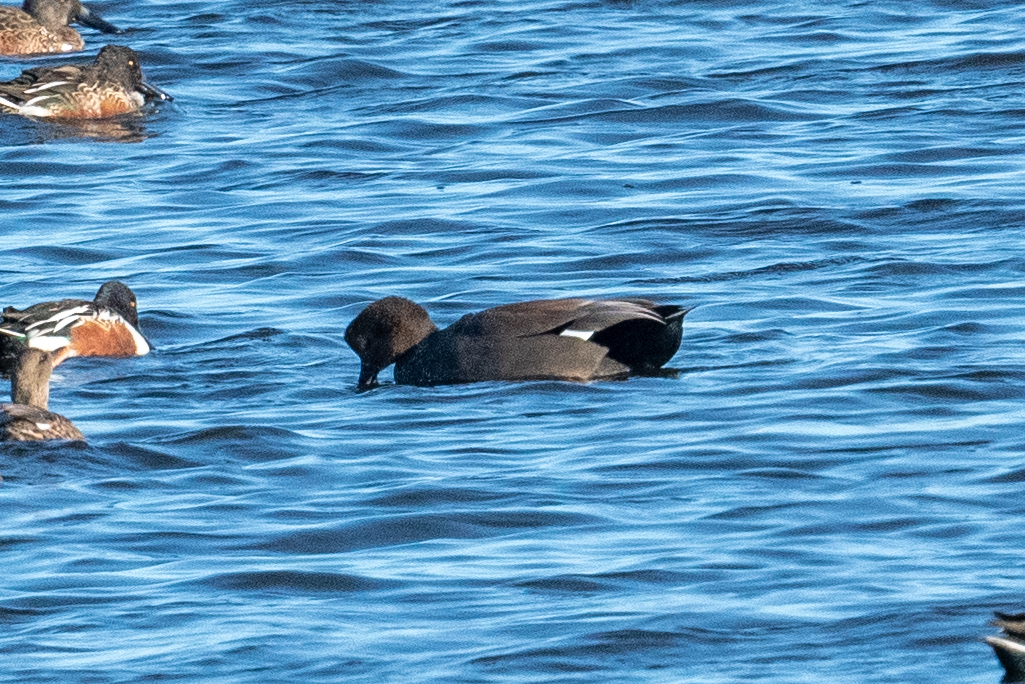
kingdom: Animalia
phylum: Chordata
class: Aves
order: Anseriformes
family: Anatidae
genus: Mareca
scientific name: Mareca strepera
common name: Gadwall
